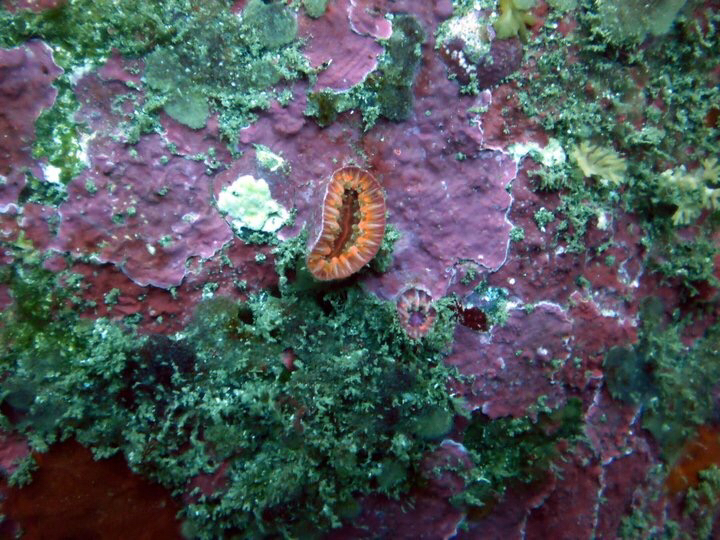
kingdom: Animalia
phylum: Cnidaria
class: Anthozoa
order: Scleractinia
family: Flabellidae
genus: Monomyces
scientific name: Monomyces rubrum
